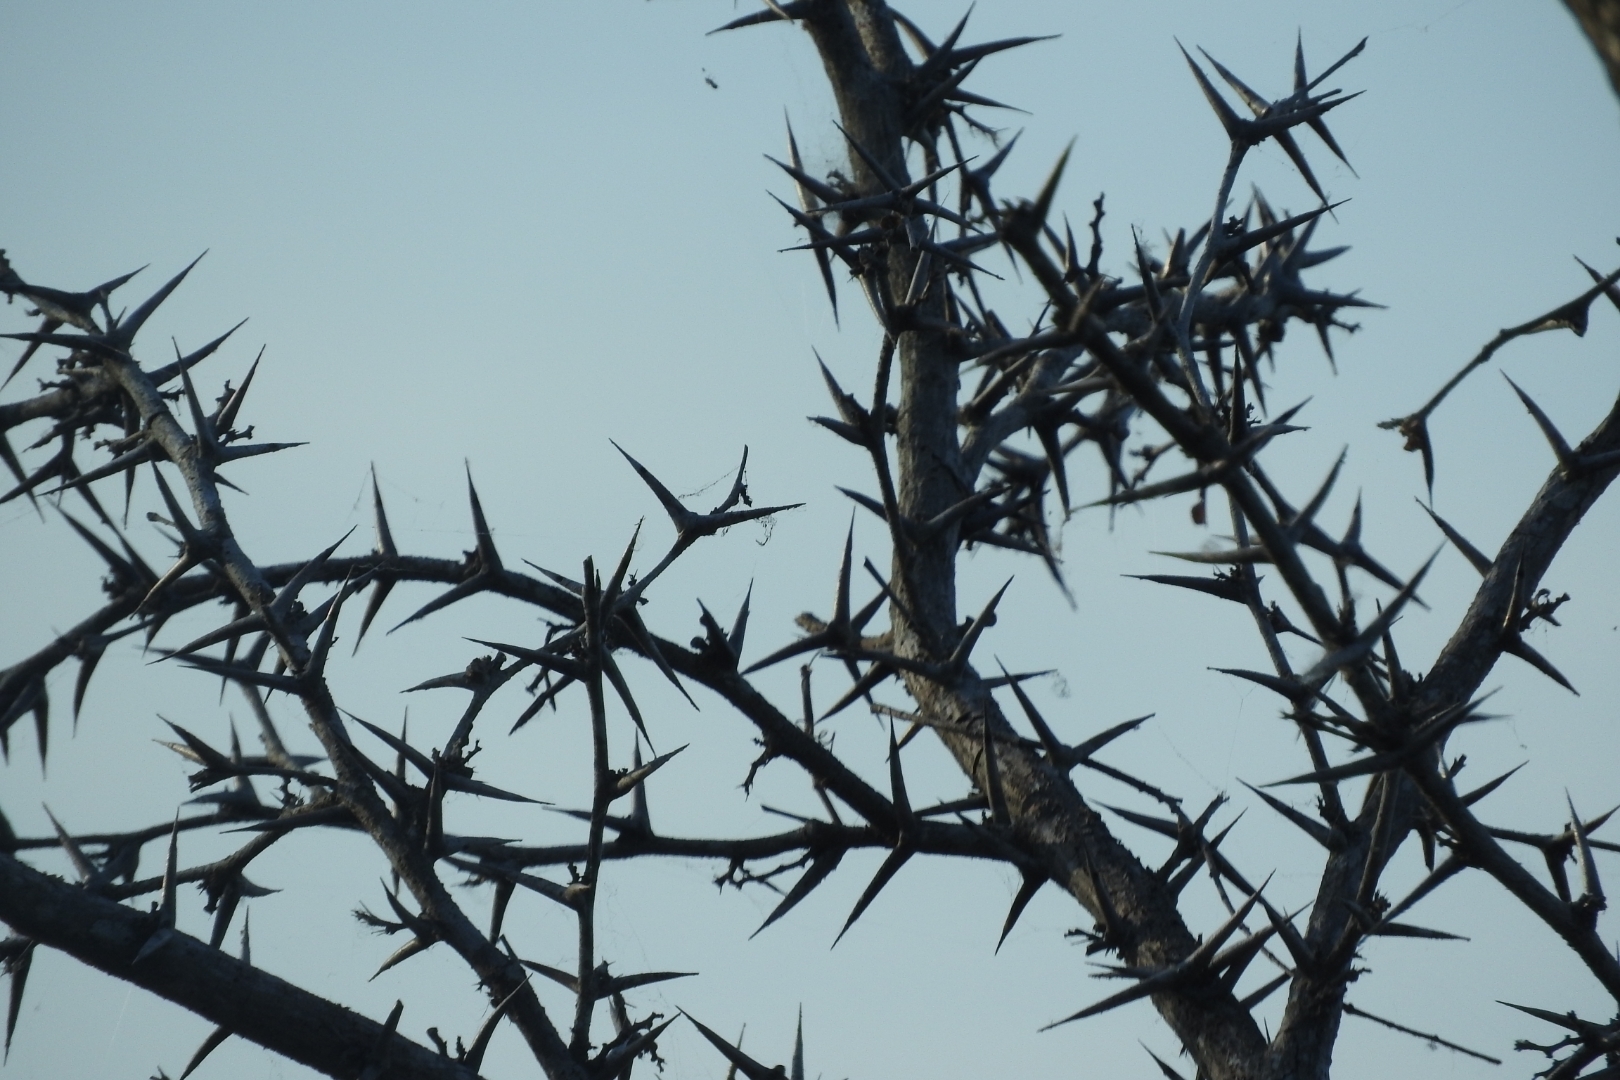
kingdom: Plantae
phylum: Tracheophyta
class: Magnoliopsida
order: Fabales
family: Fabaceae
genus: Vachellia
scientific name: Vachellia cornigera
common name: Bullhorn wattle
